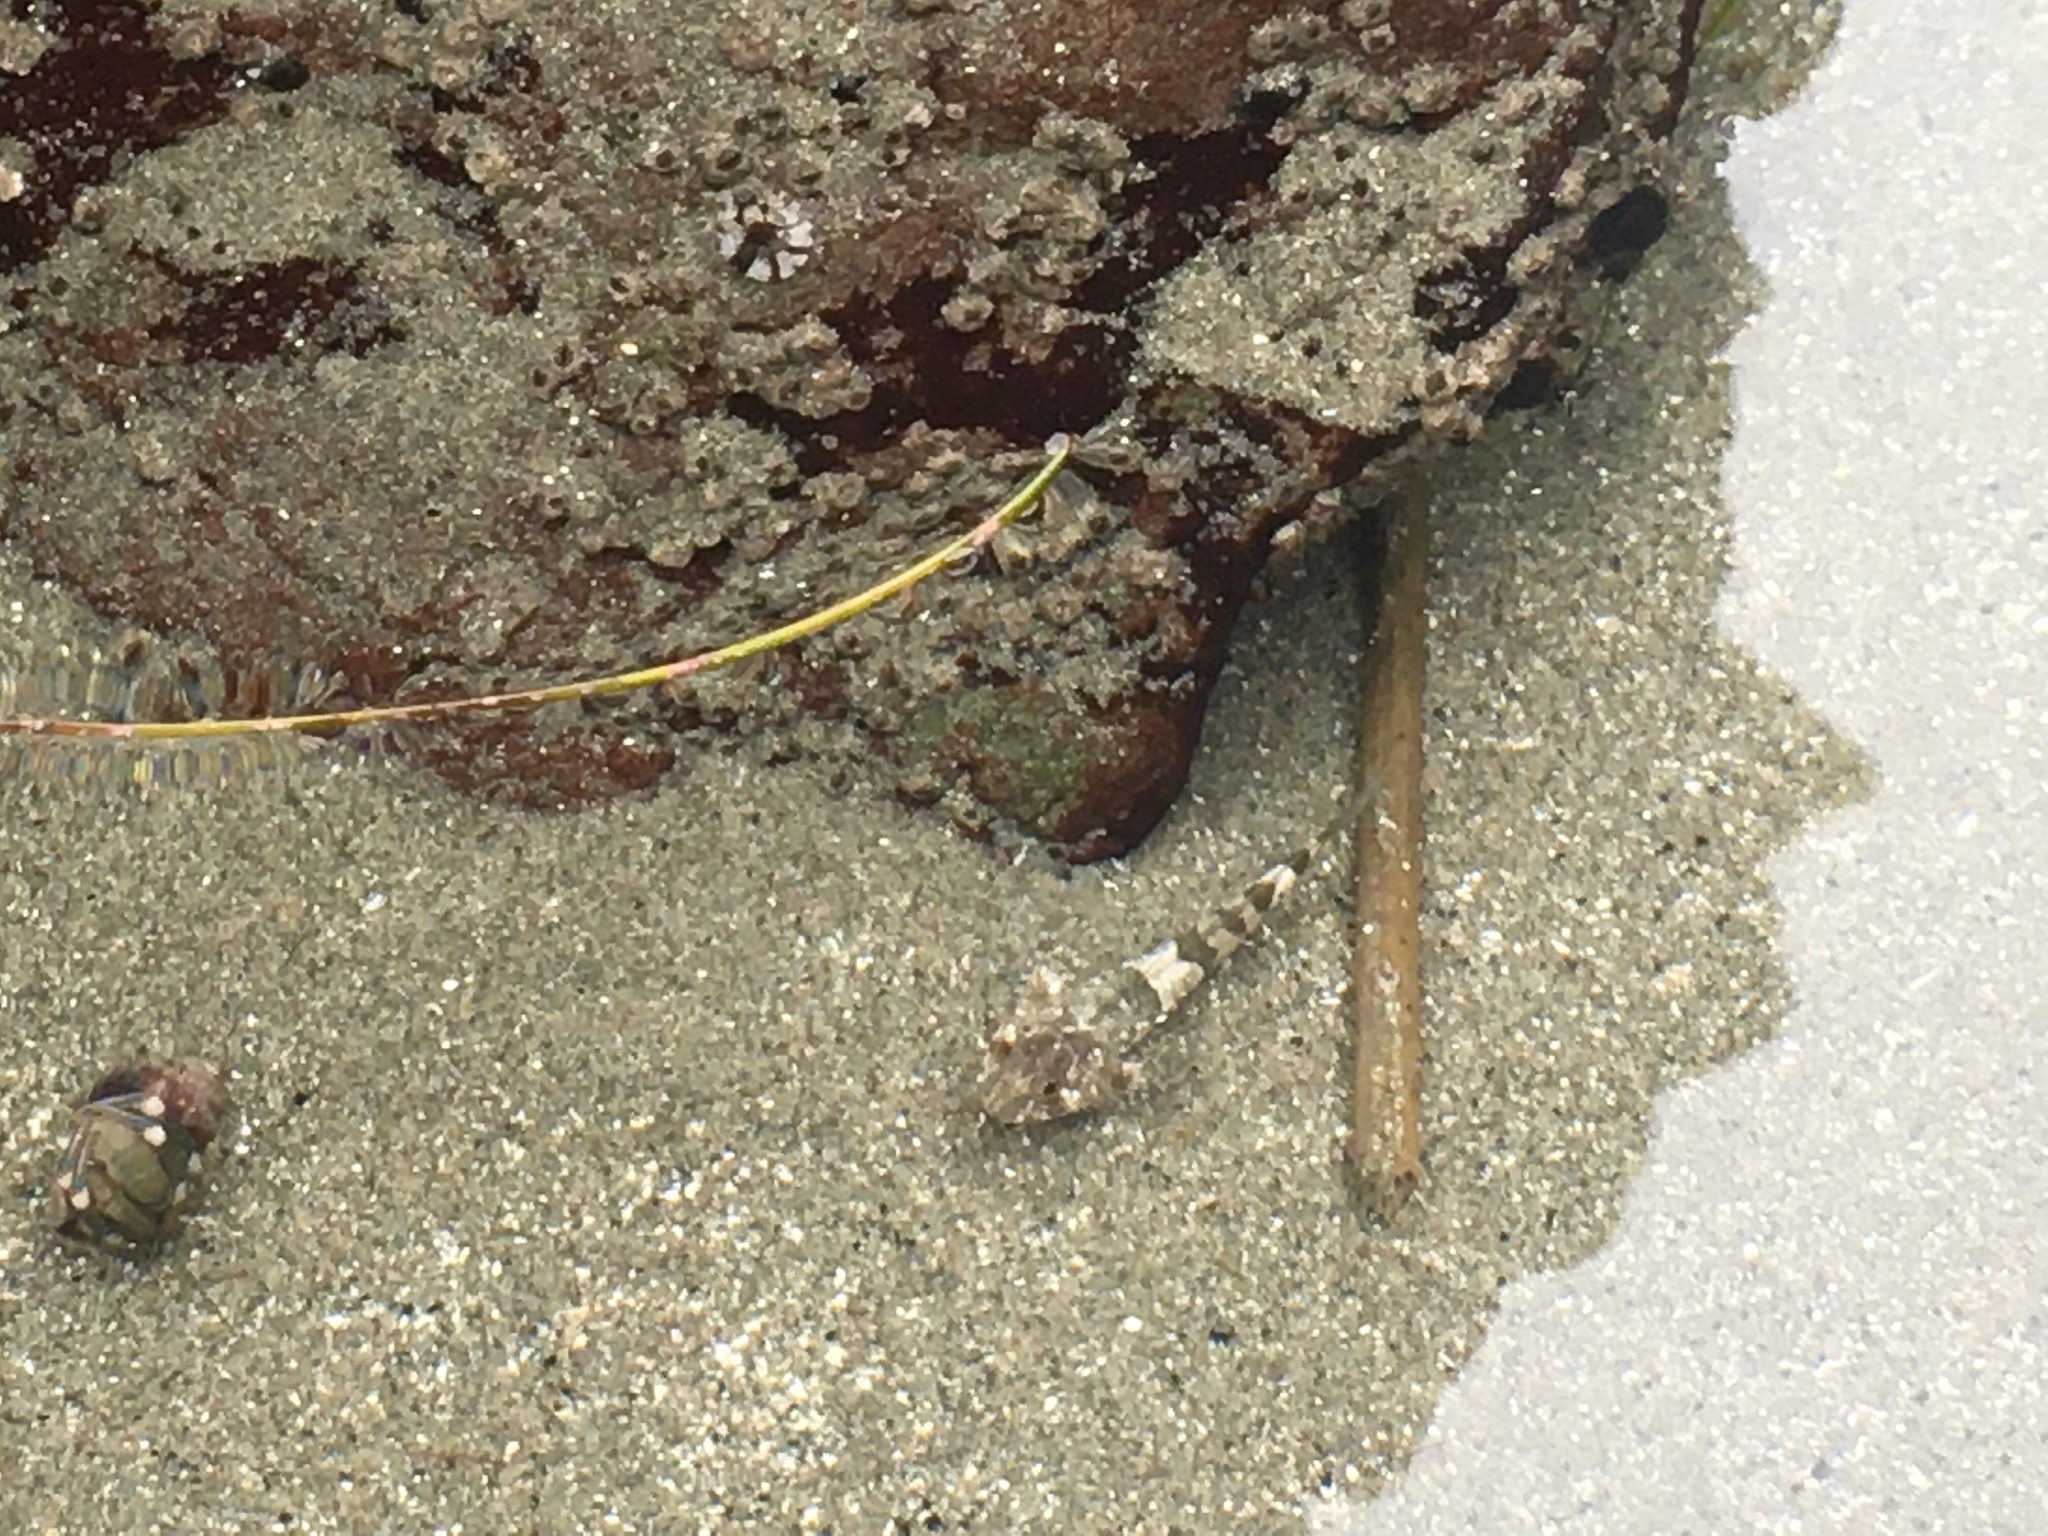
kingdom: Animalia
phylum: Chordata
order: Scorpaeniformes
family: Cottidae
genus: Clinocottus
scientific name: Clinocottus globiceps
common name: Mosshead sculpin
